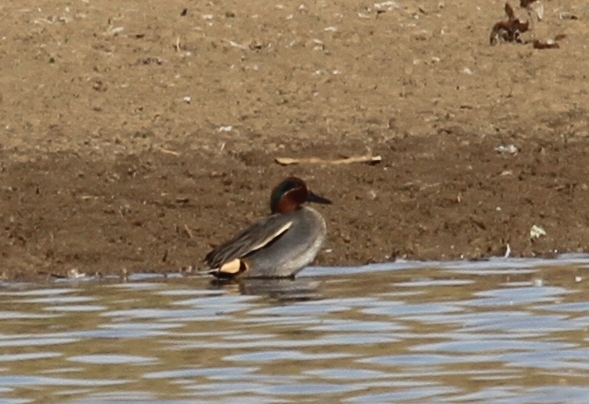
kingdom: Animalia
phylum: Chordata
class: Aves
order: Anseriformes
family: Anatidae
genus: Anas
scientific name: Anas crecca
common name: Eurasian teal
